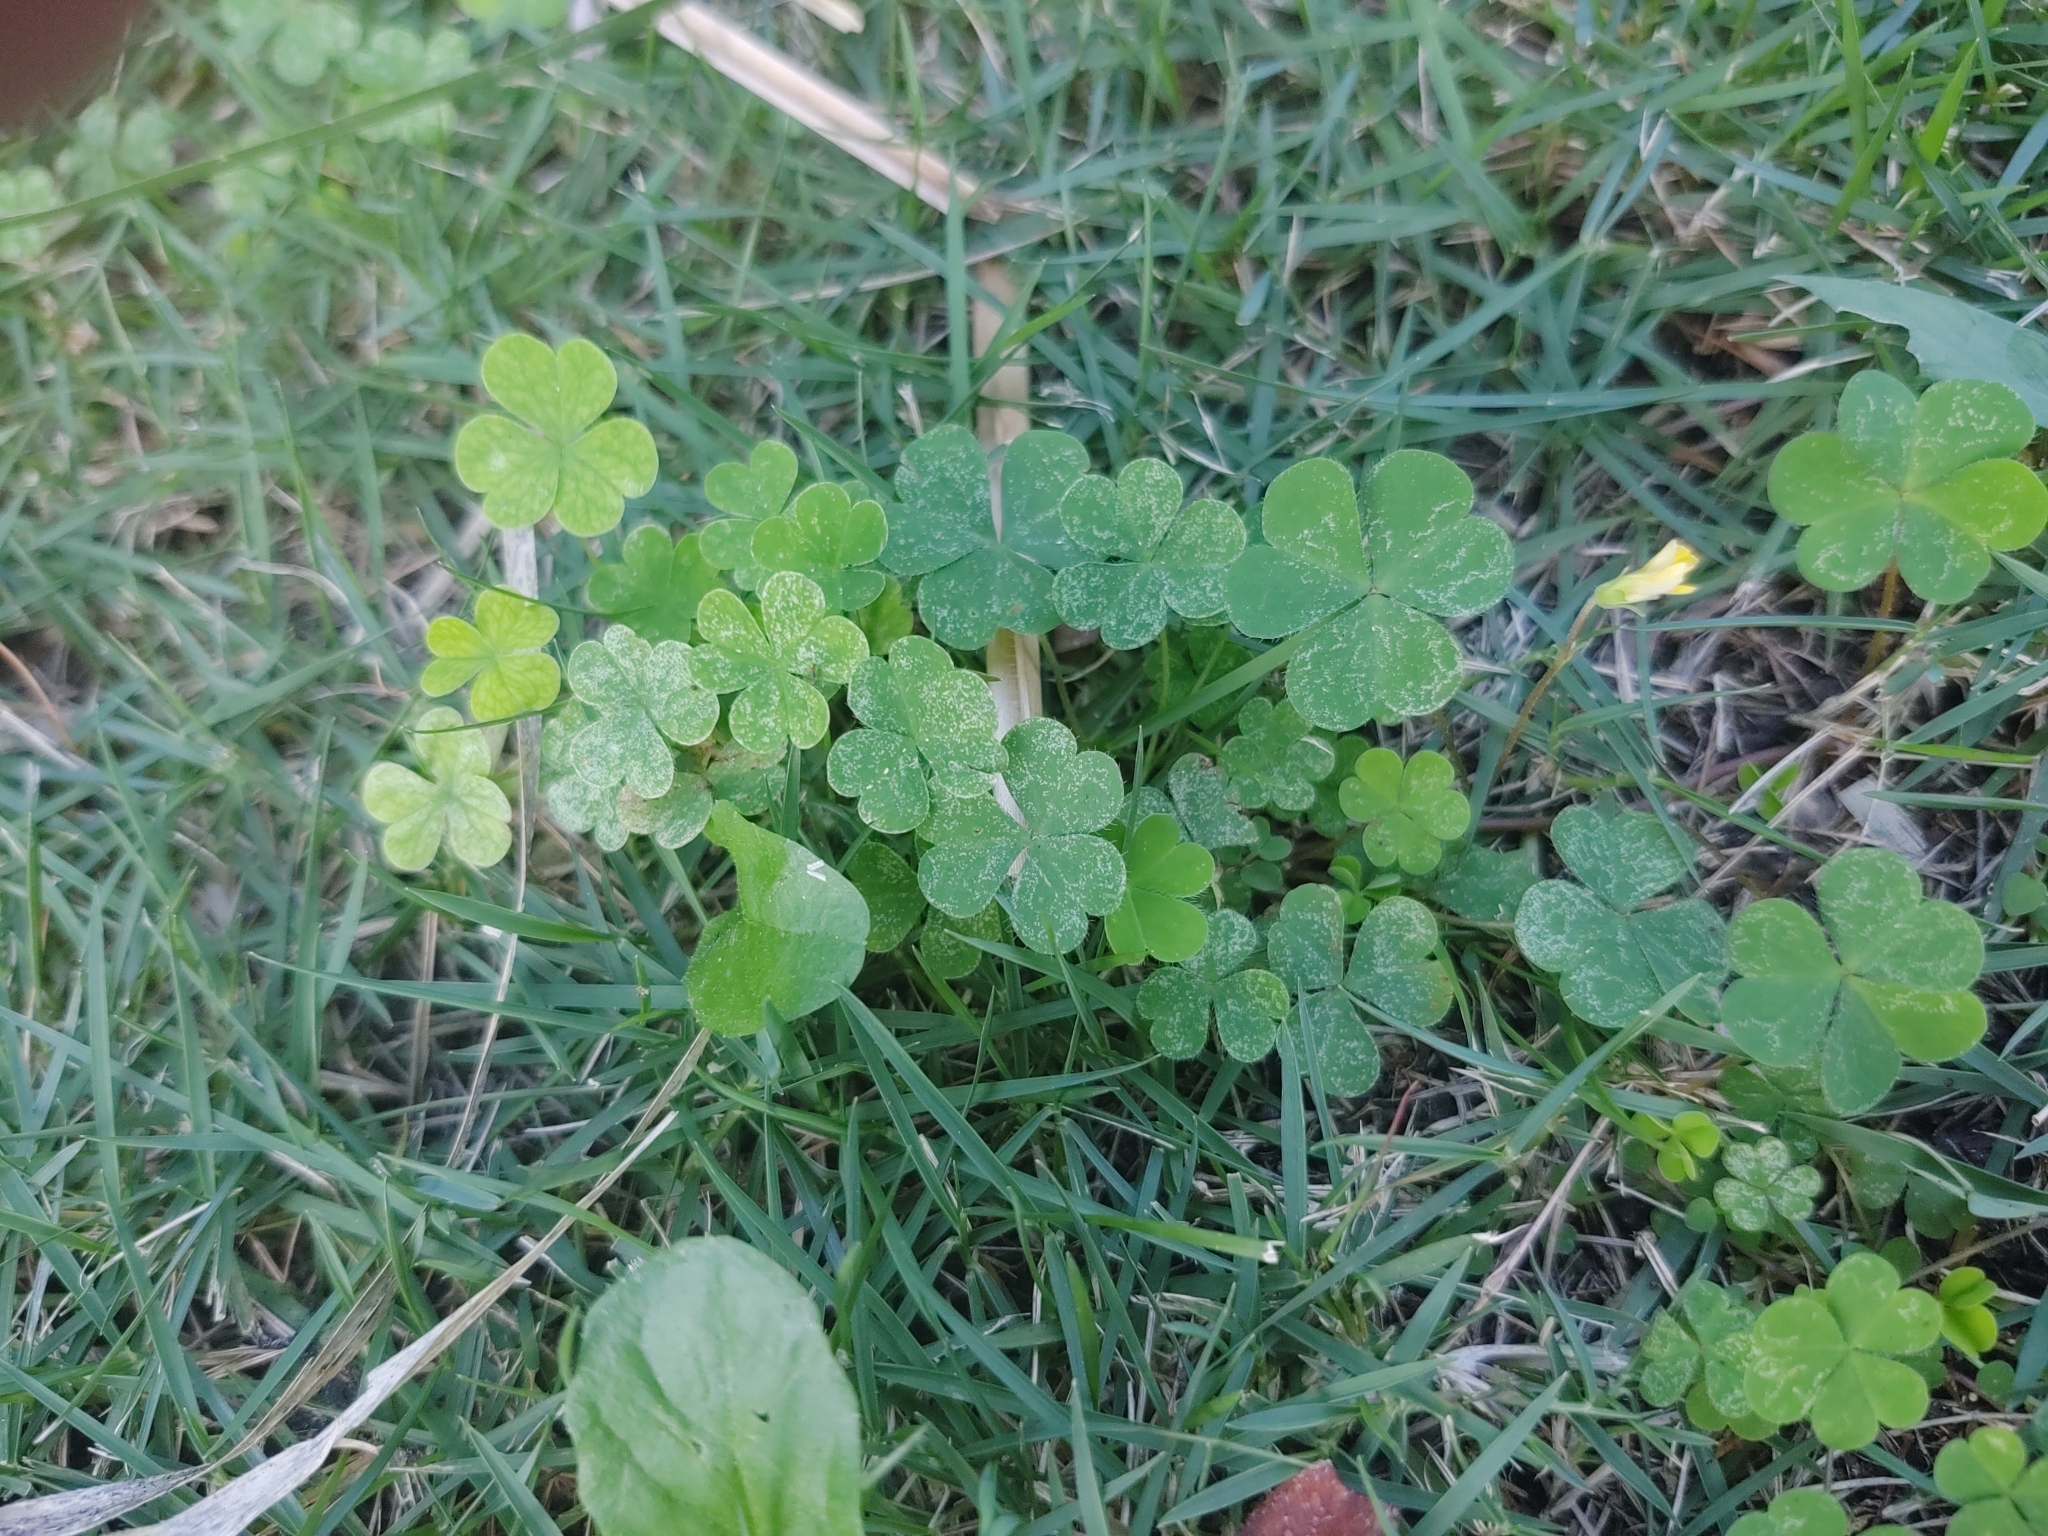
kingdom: Plantae
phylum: Tracheophyta
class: Magnoliopsida
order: Oxalidales
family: Oxalidaceae
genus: Oxalis
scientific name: Oxalis corniculata
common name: Procumbent yellow-sorrel
